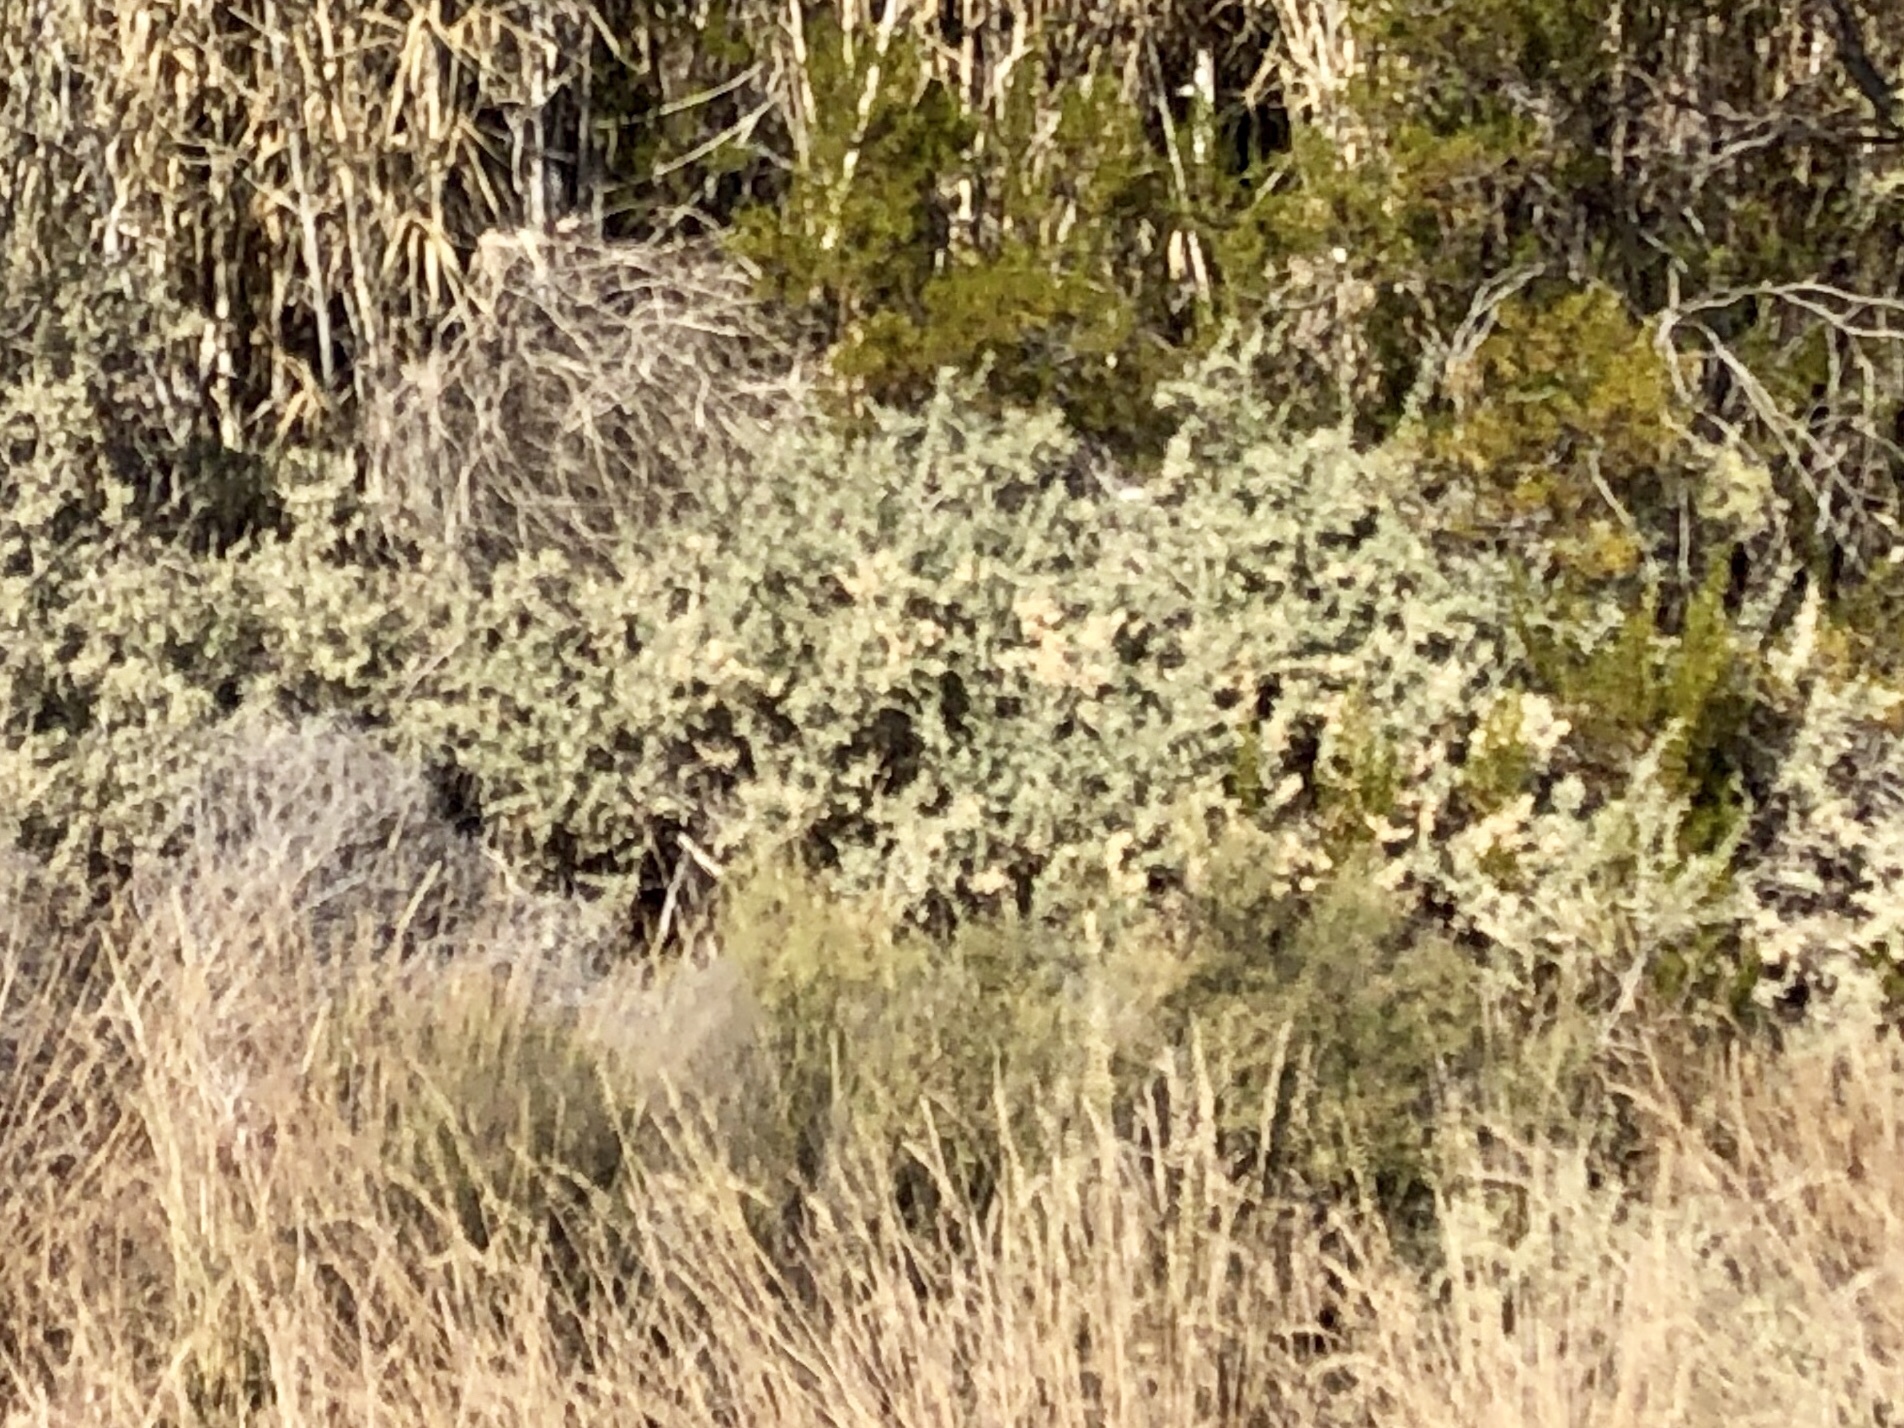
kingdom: Plantae
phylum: Tracheophyta
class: Magnoliopsida
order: Caryophyllales
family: Amaranthaceae
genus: Atriplex
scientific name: Atriplex canescens
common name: Four-wing saltbush
